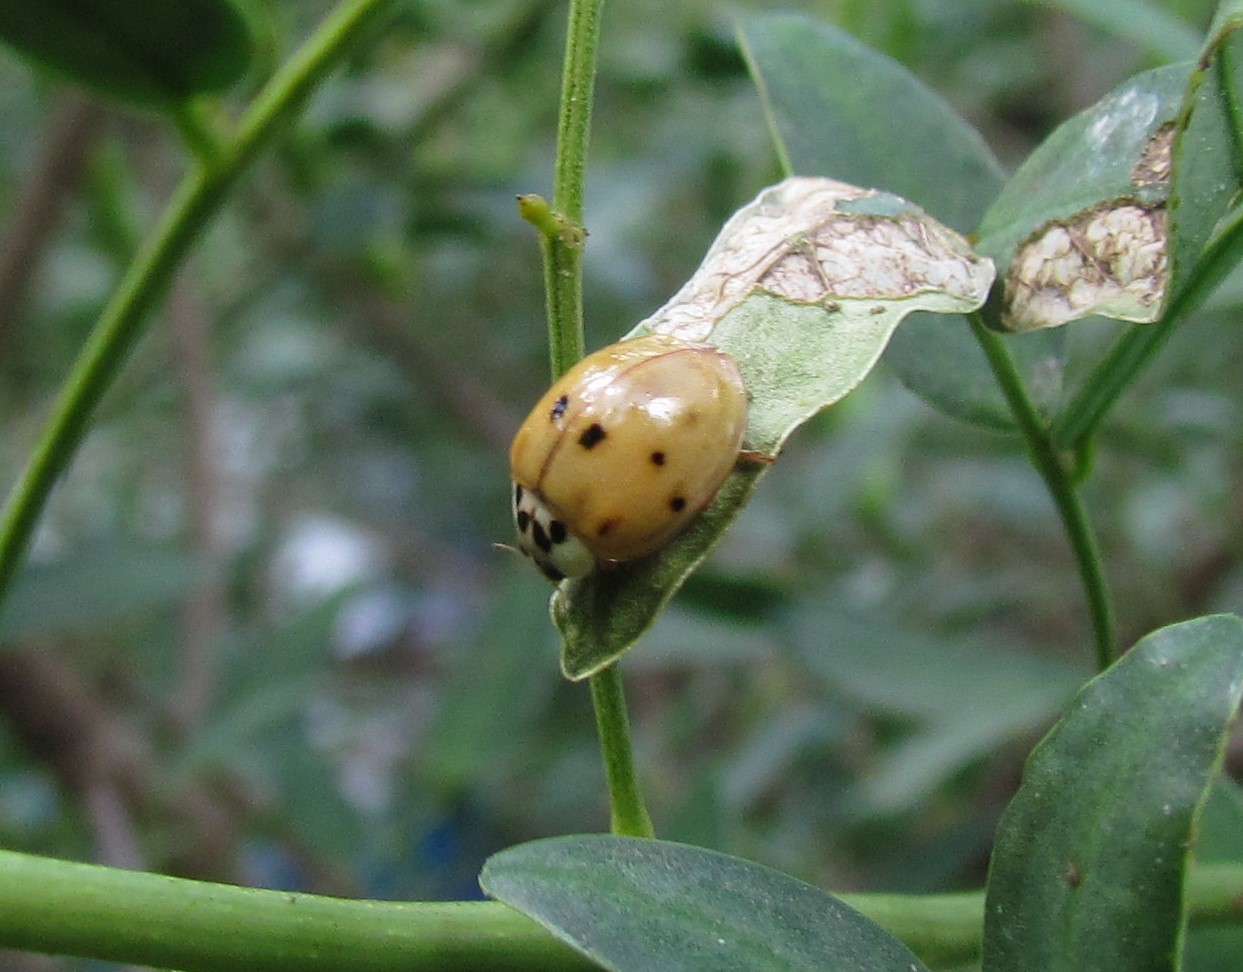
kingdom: Animalia
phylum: Arthropoda
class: Insecta
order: Coleoptera
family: Coccinellidae
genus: Harmonia
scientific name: Harmonia axyridis
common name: Harlequin ladybird
